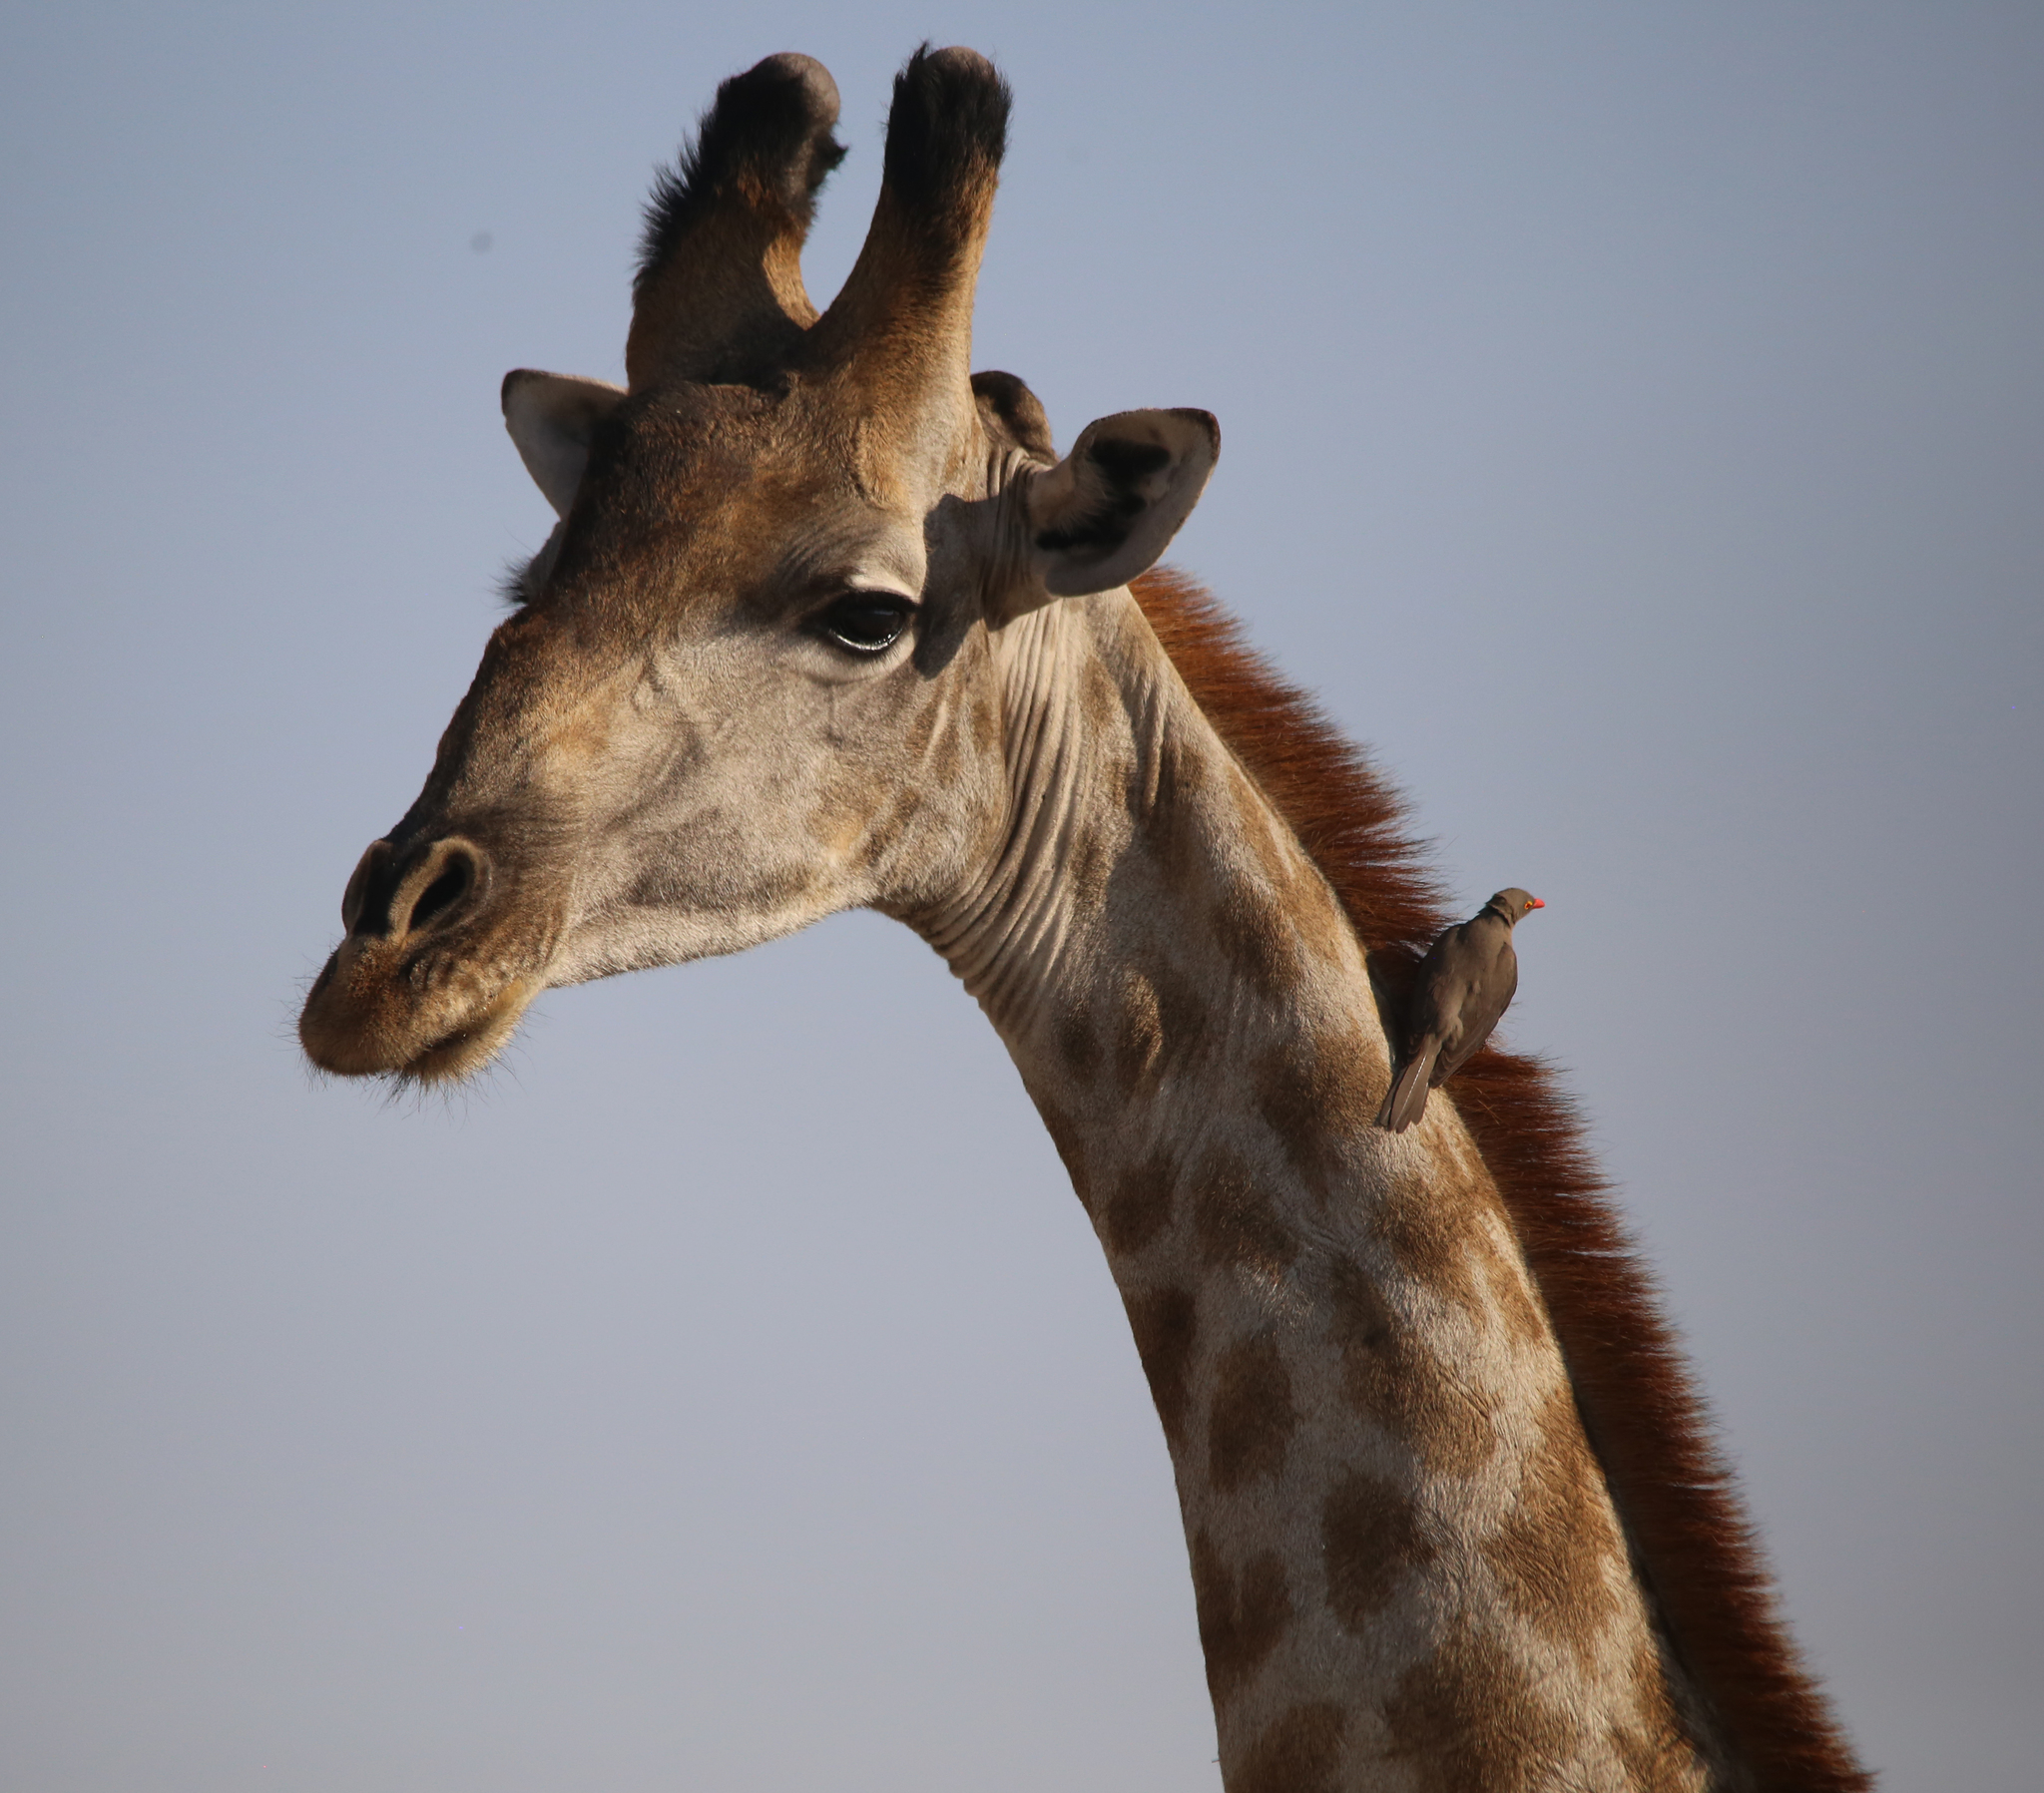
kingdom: Animalia
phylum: Chordata
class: Mammalia
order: Artiodactyla
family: Giraffidae
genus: Giraffa
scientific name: Giraffa giraffa
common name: Southern giraffe
